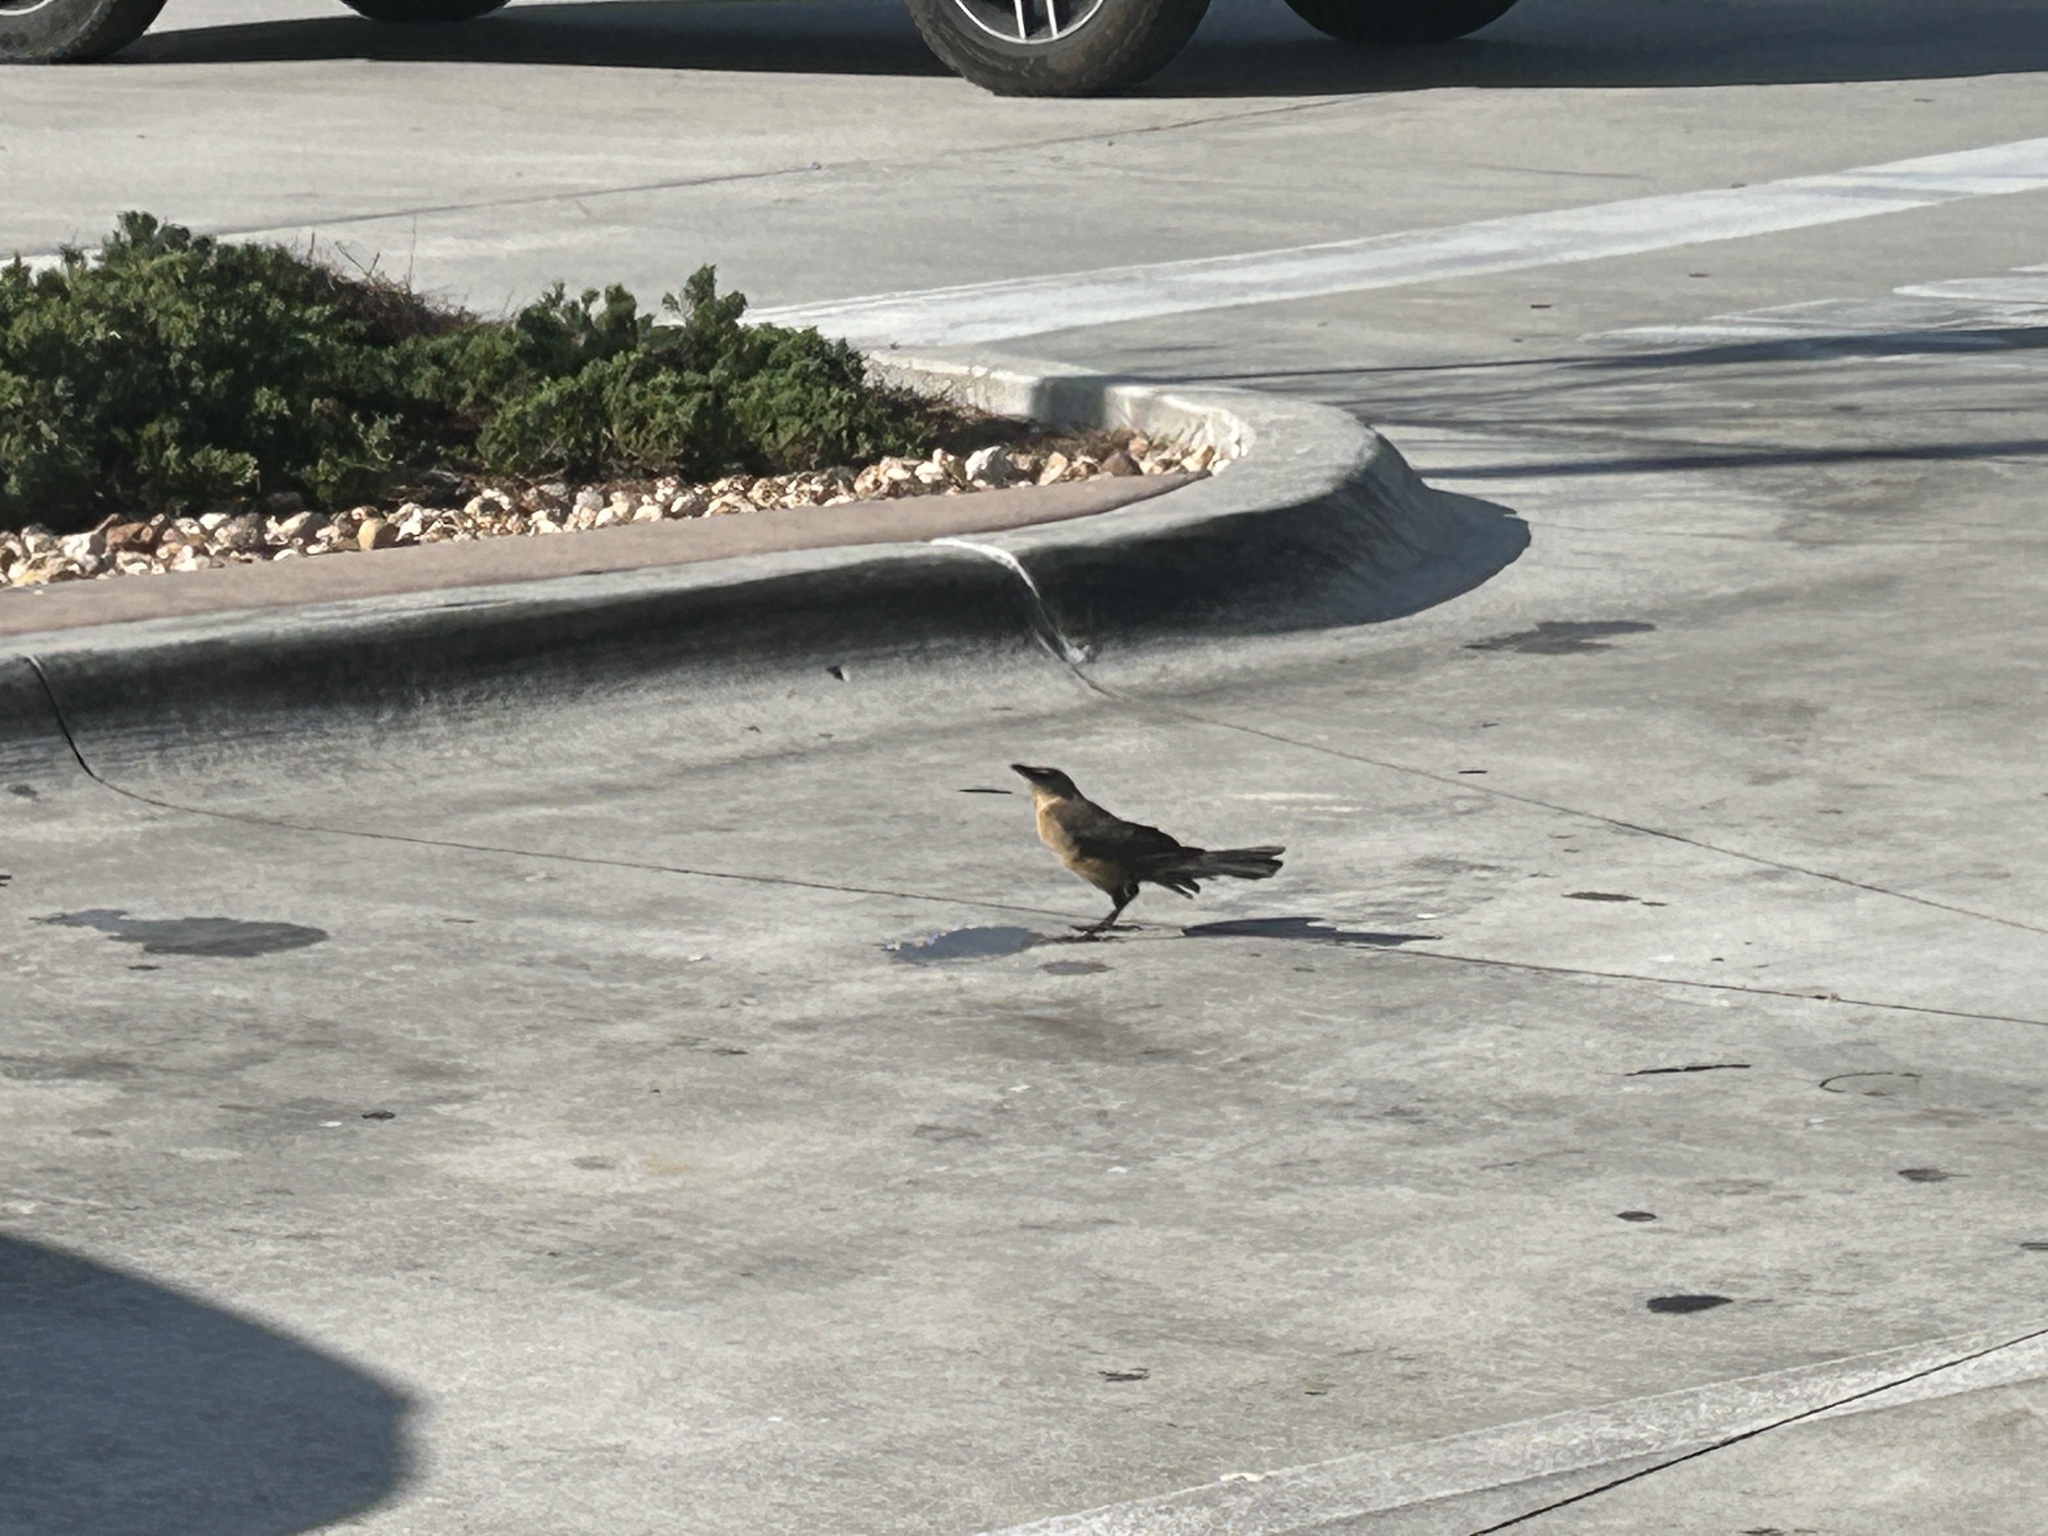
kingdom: Animalia
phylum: Chordata
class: Aves
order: Passeriformes
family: Icteridae
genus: Quiscalus
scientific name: Quiscalus major
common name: Boat-tailed grackle
